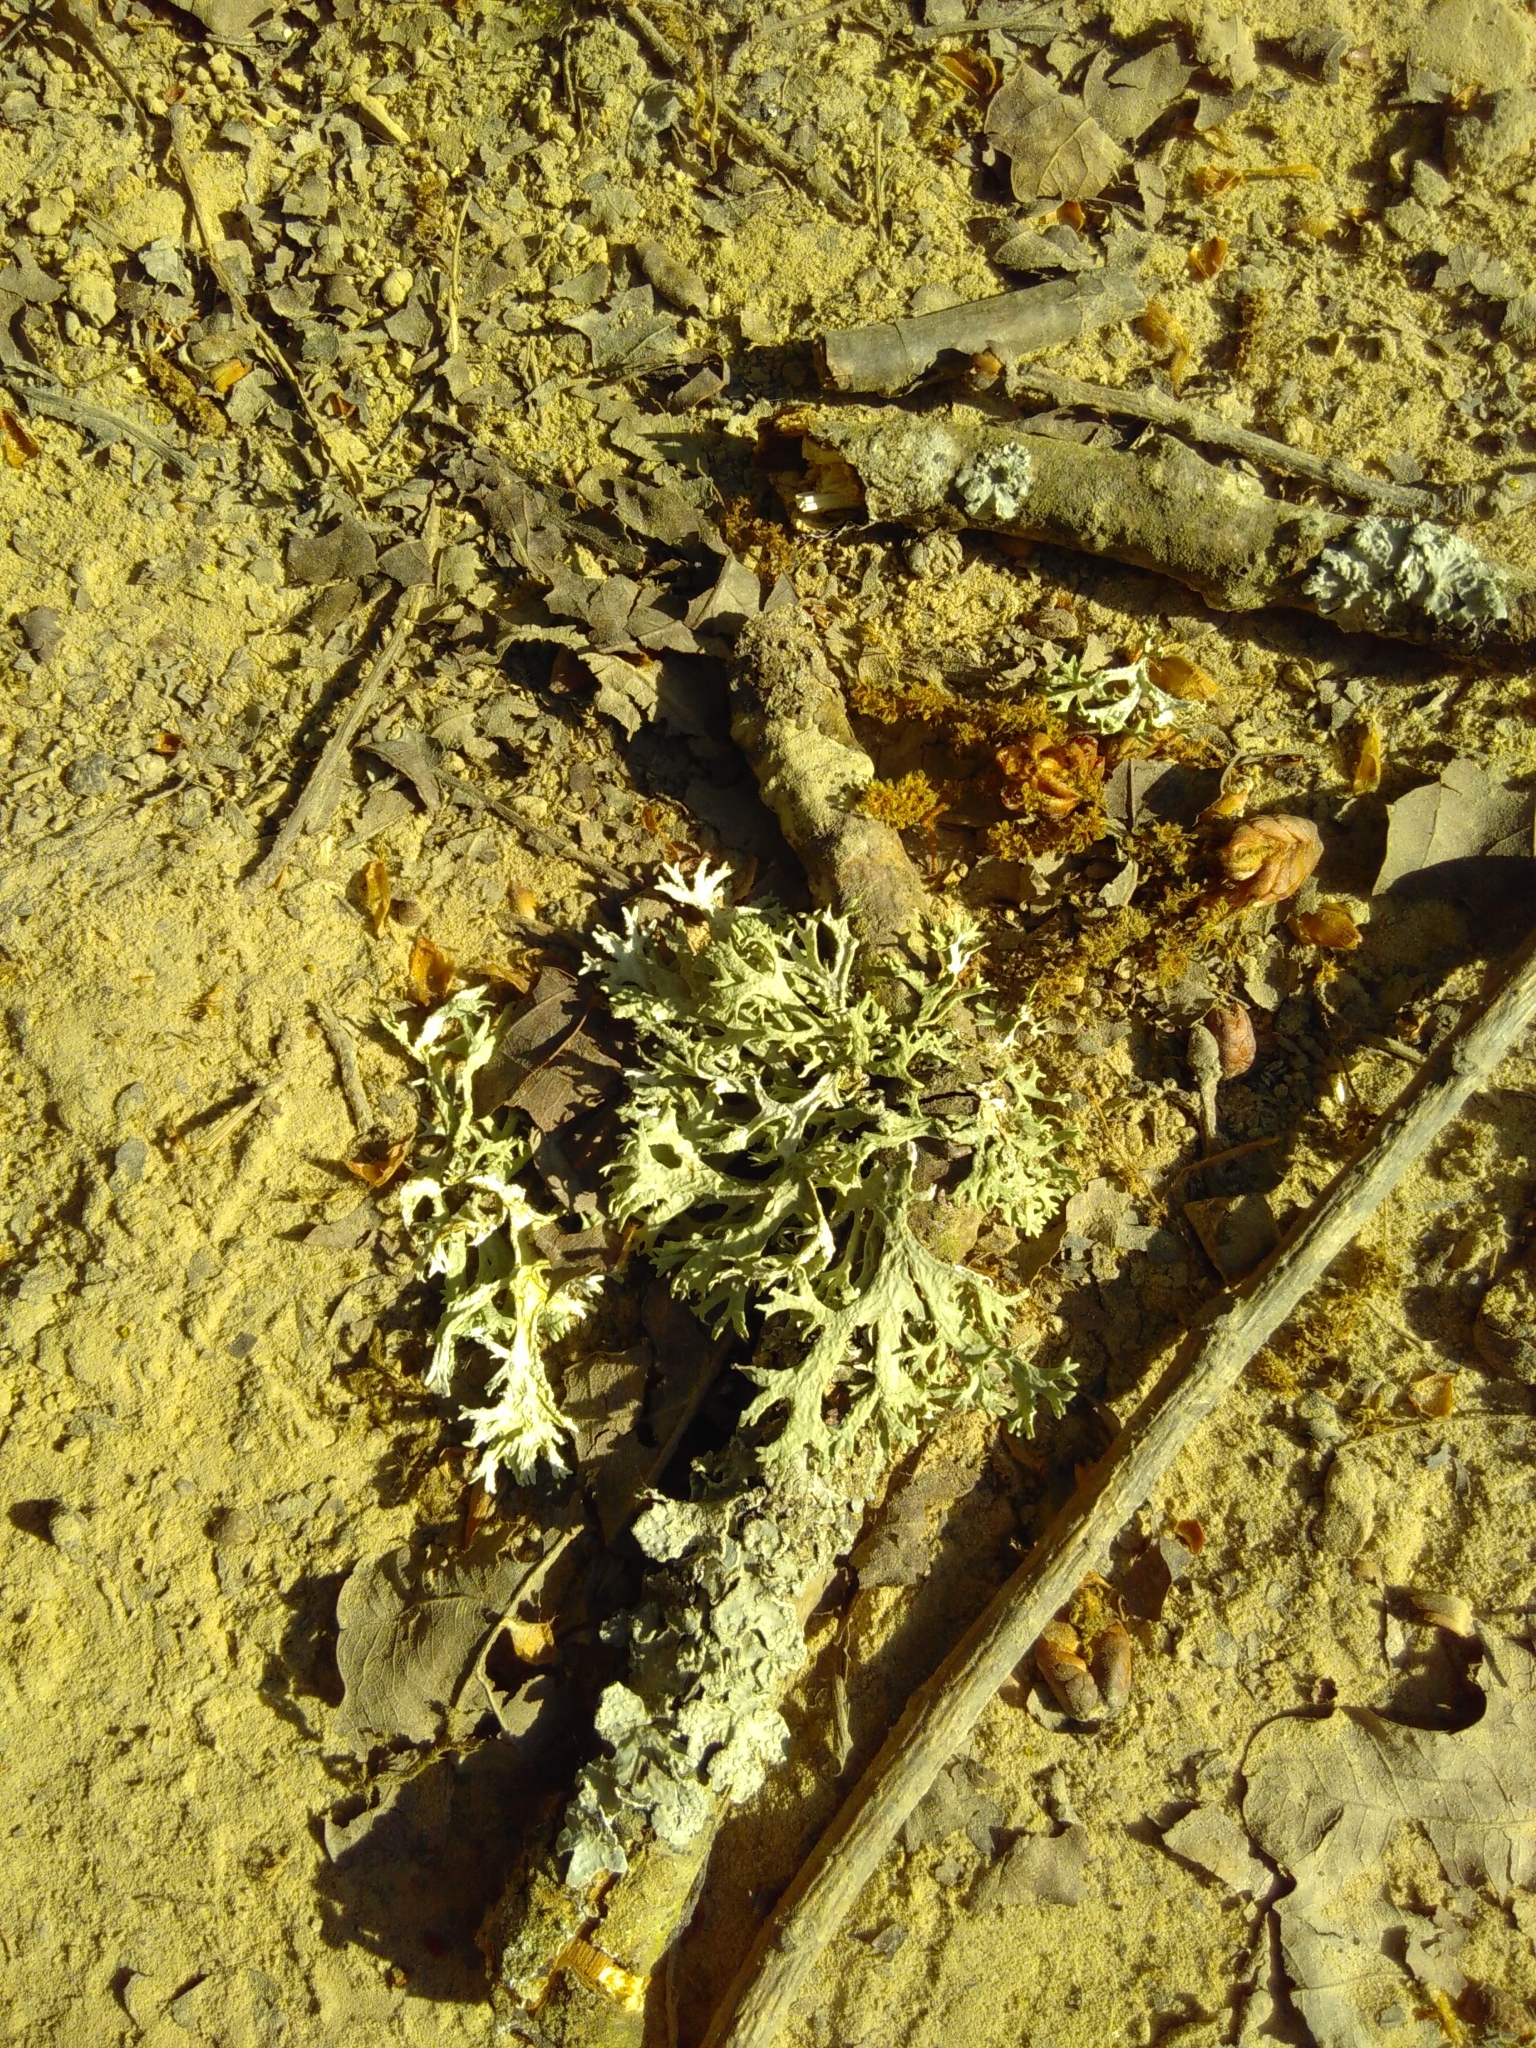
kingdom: Fungi
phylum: Ascomycota
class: Lecanoromycetes
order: Lecanorales
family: Parmeliaceae
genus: Evernia
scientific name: Evernia prunastri
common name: Oak moss
